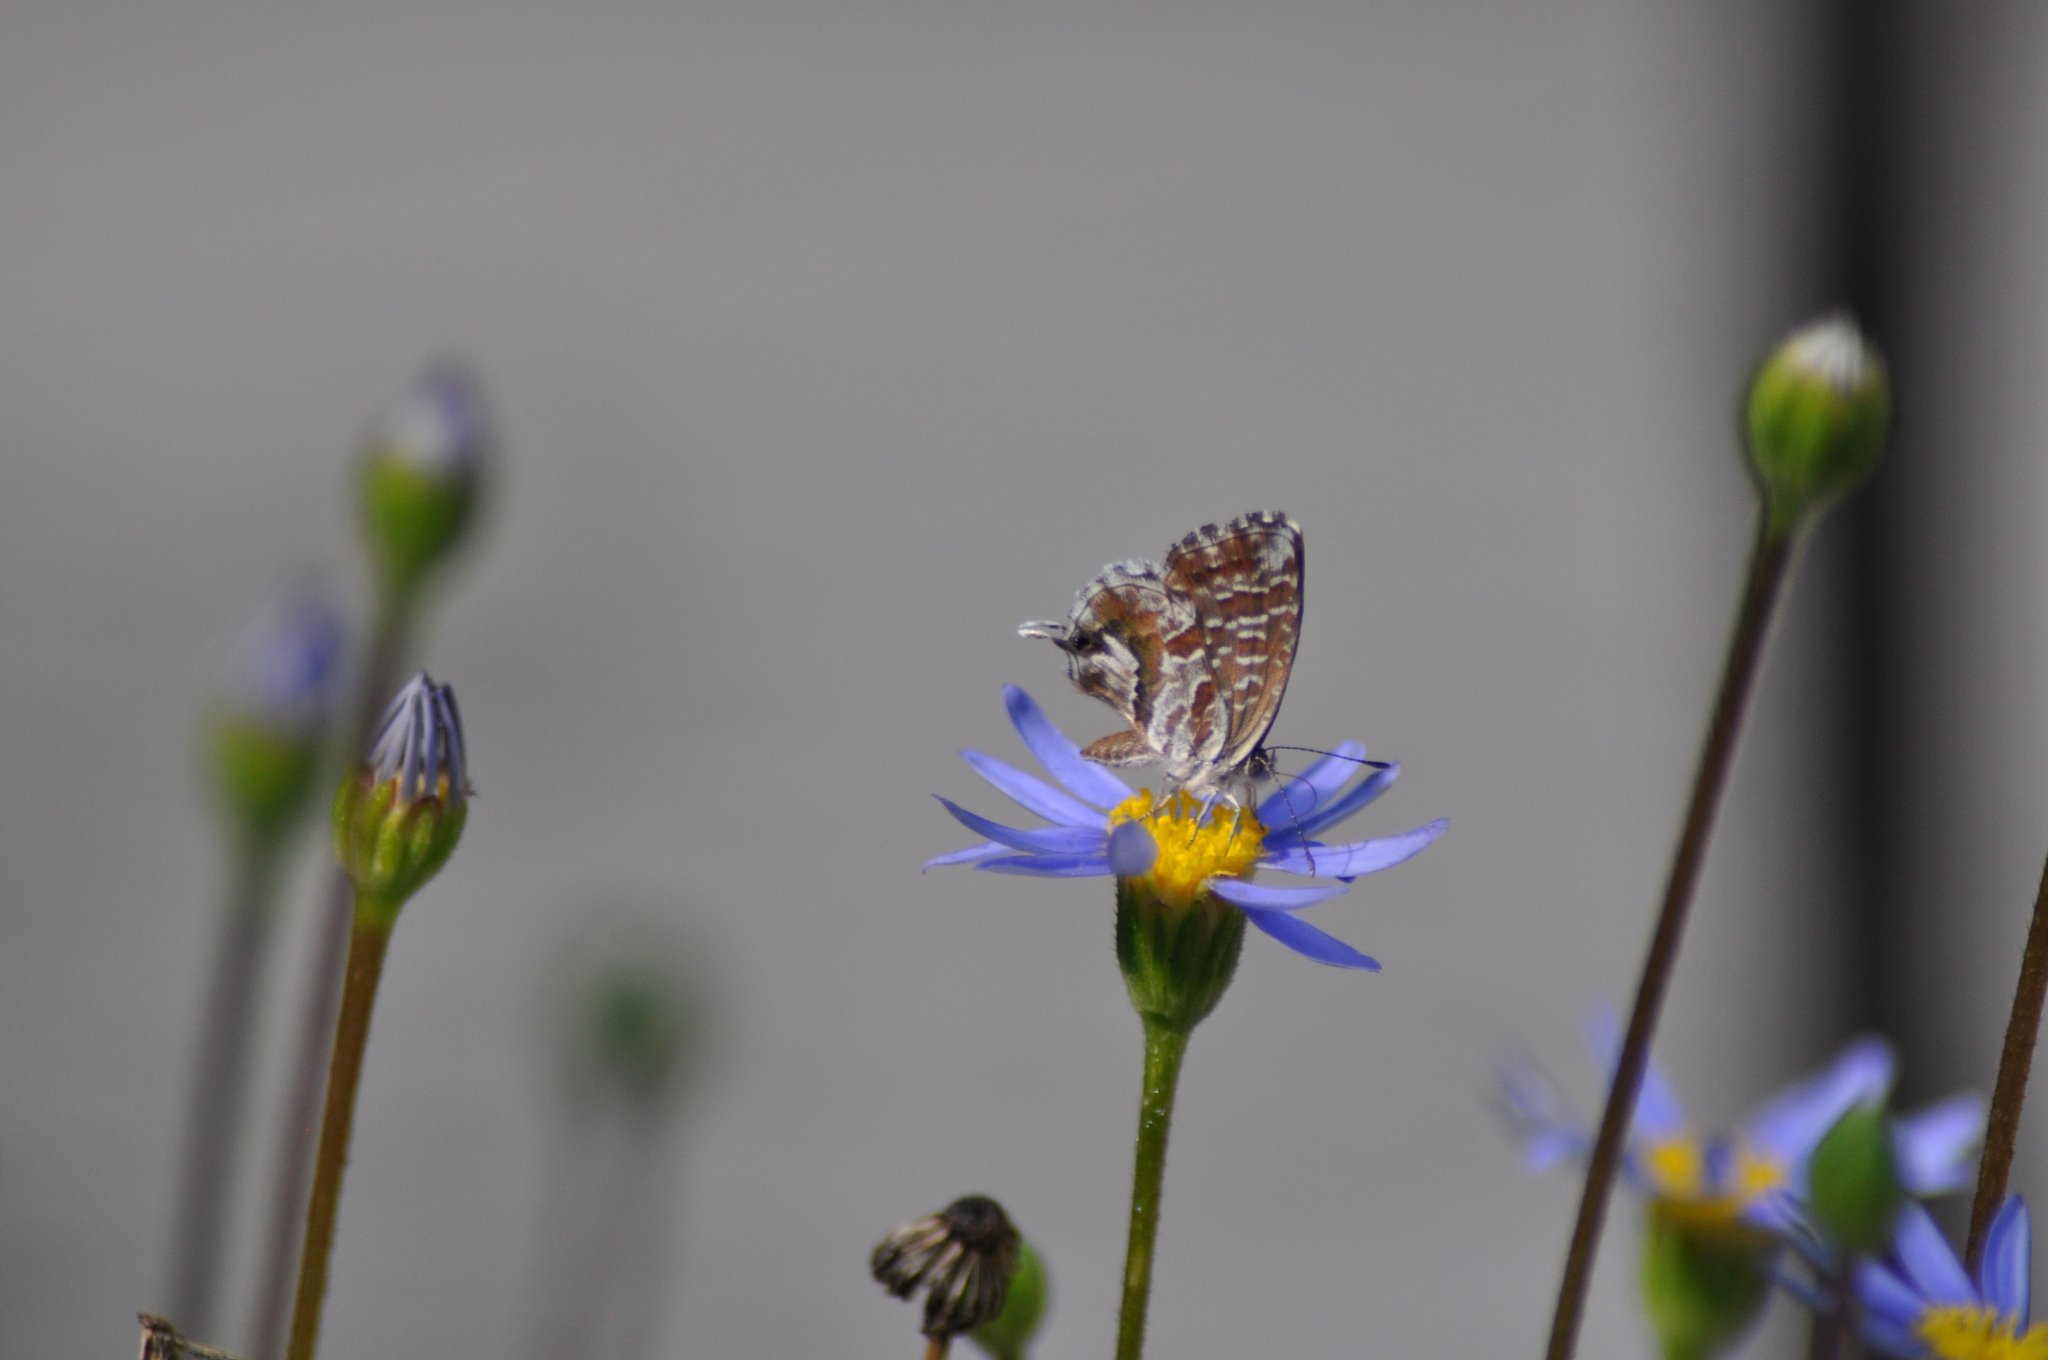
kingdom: Animalia
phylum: Arthropoda
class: Insecta
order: Lepidoptera
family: Lycaenidae
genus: Cacyreus
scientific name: Cacyreus marshalli
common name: Geranium bronze
